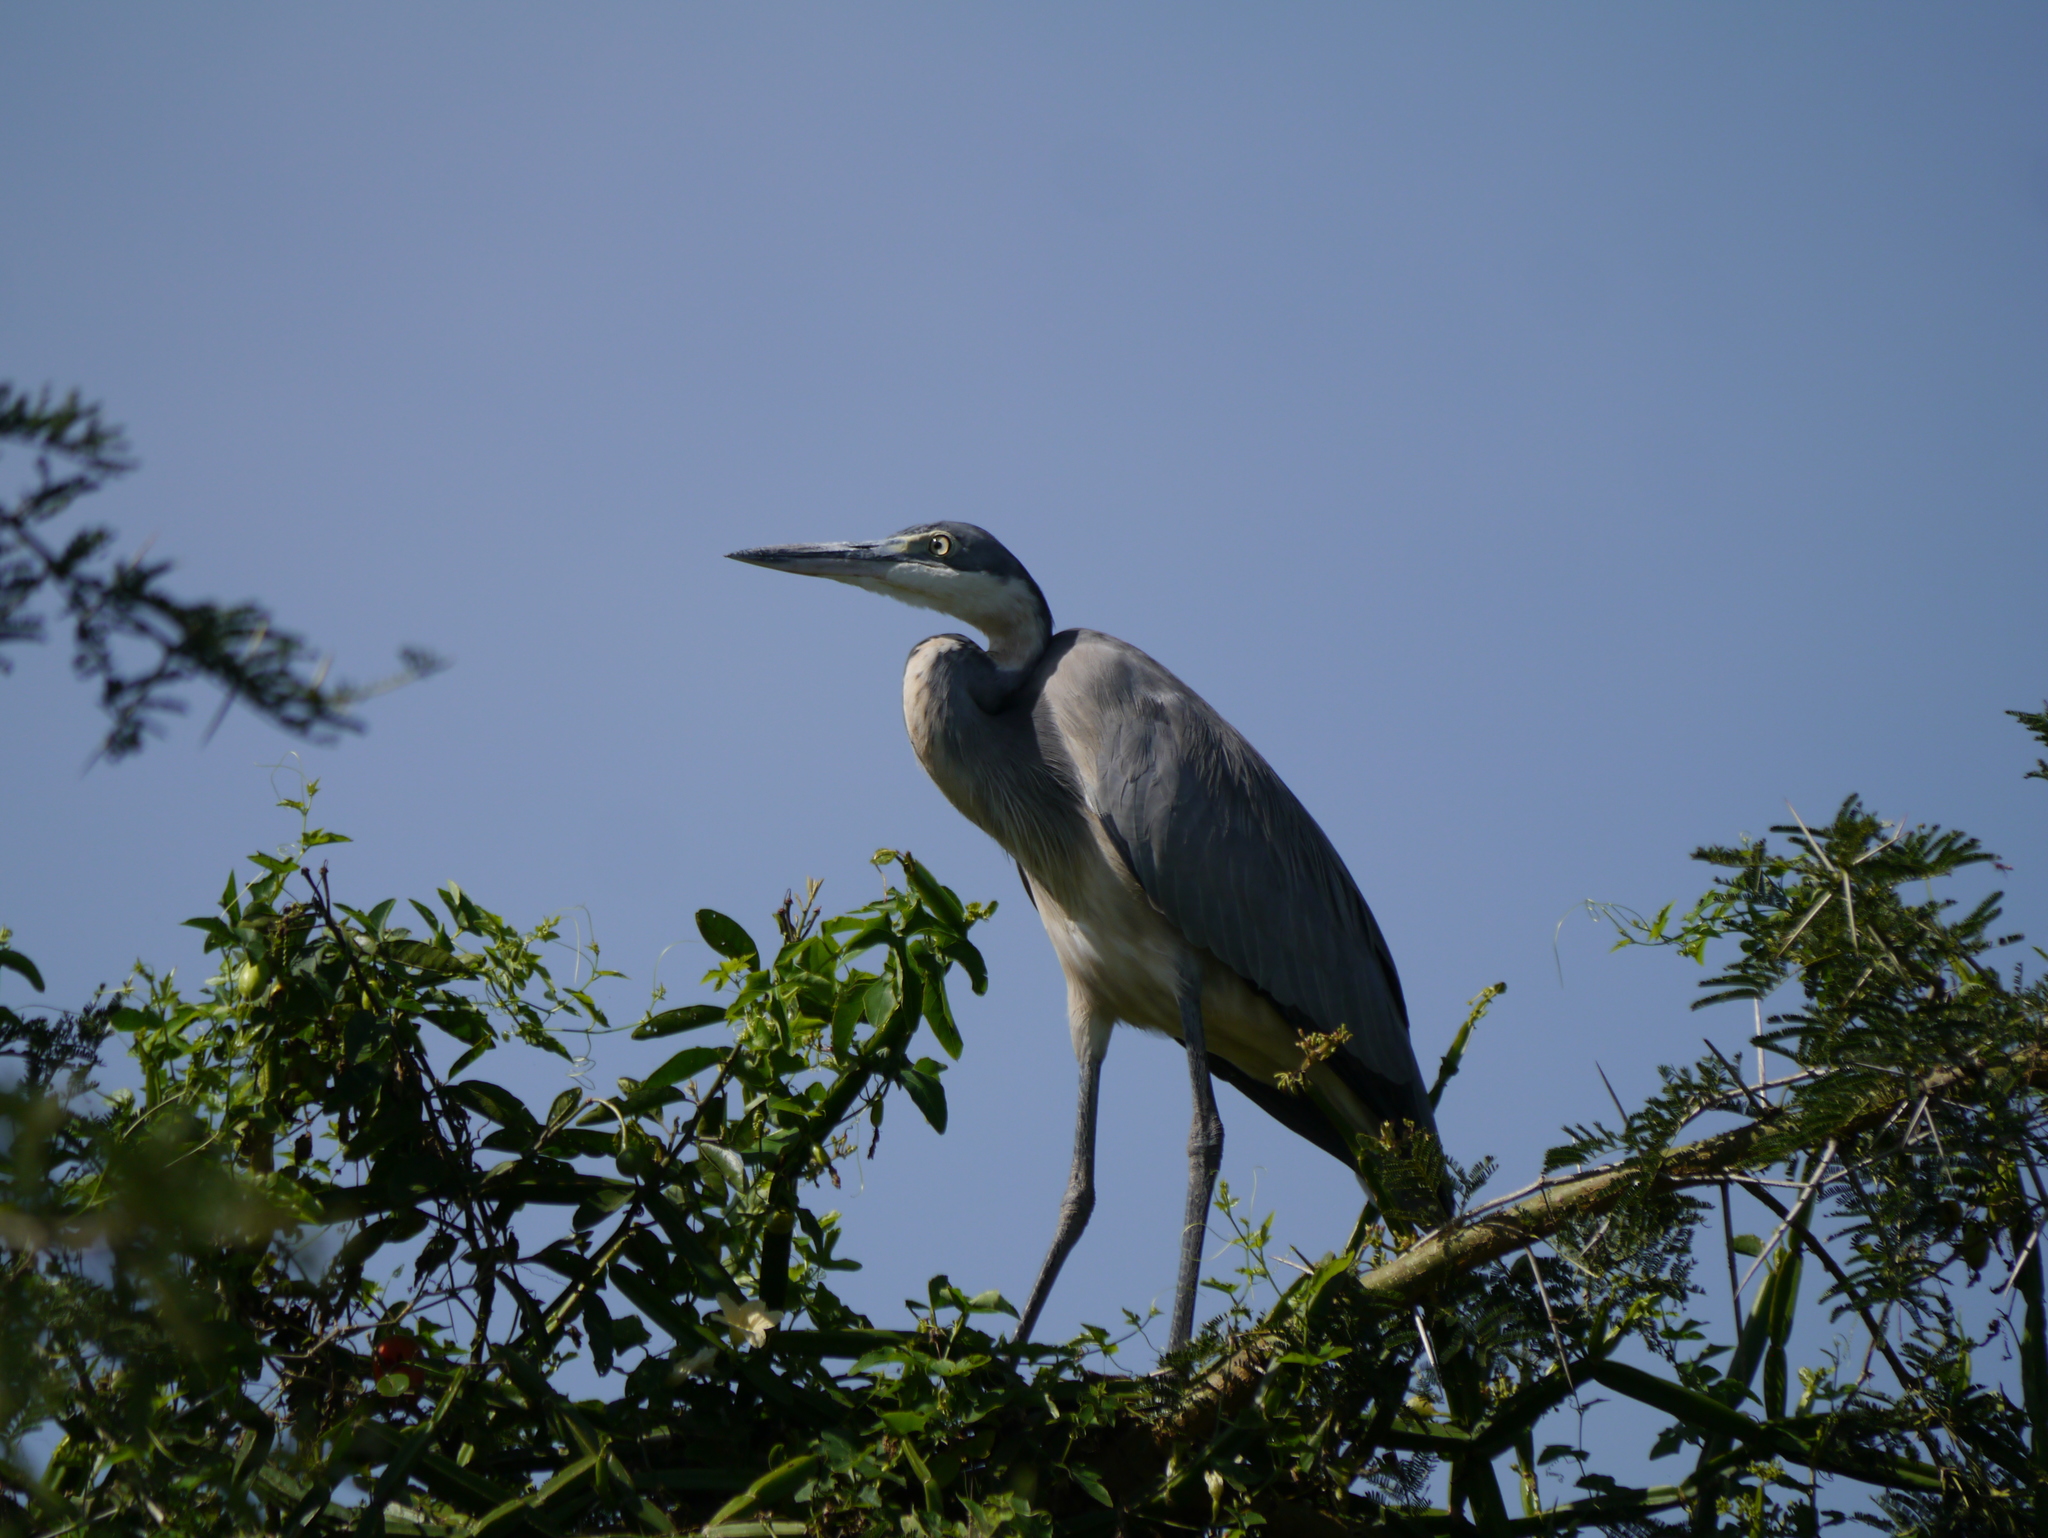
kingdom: Animalia
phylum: Chordata
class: Aves
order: Pelecaniformes
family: Ardeidae
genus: Ardea
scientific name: Ardea melanocephala
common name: Black-headed heron
